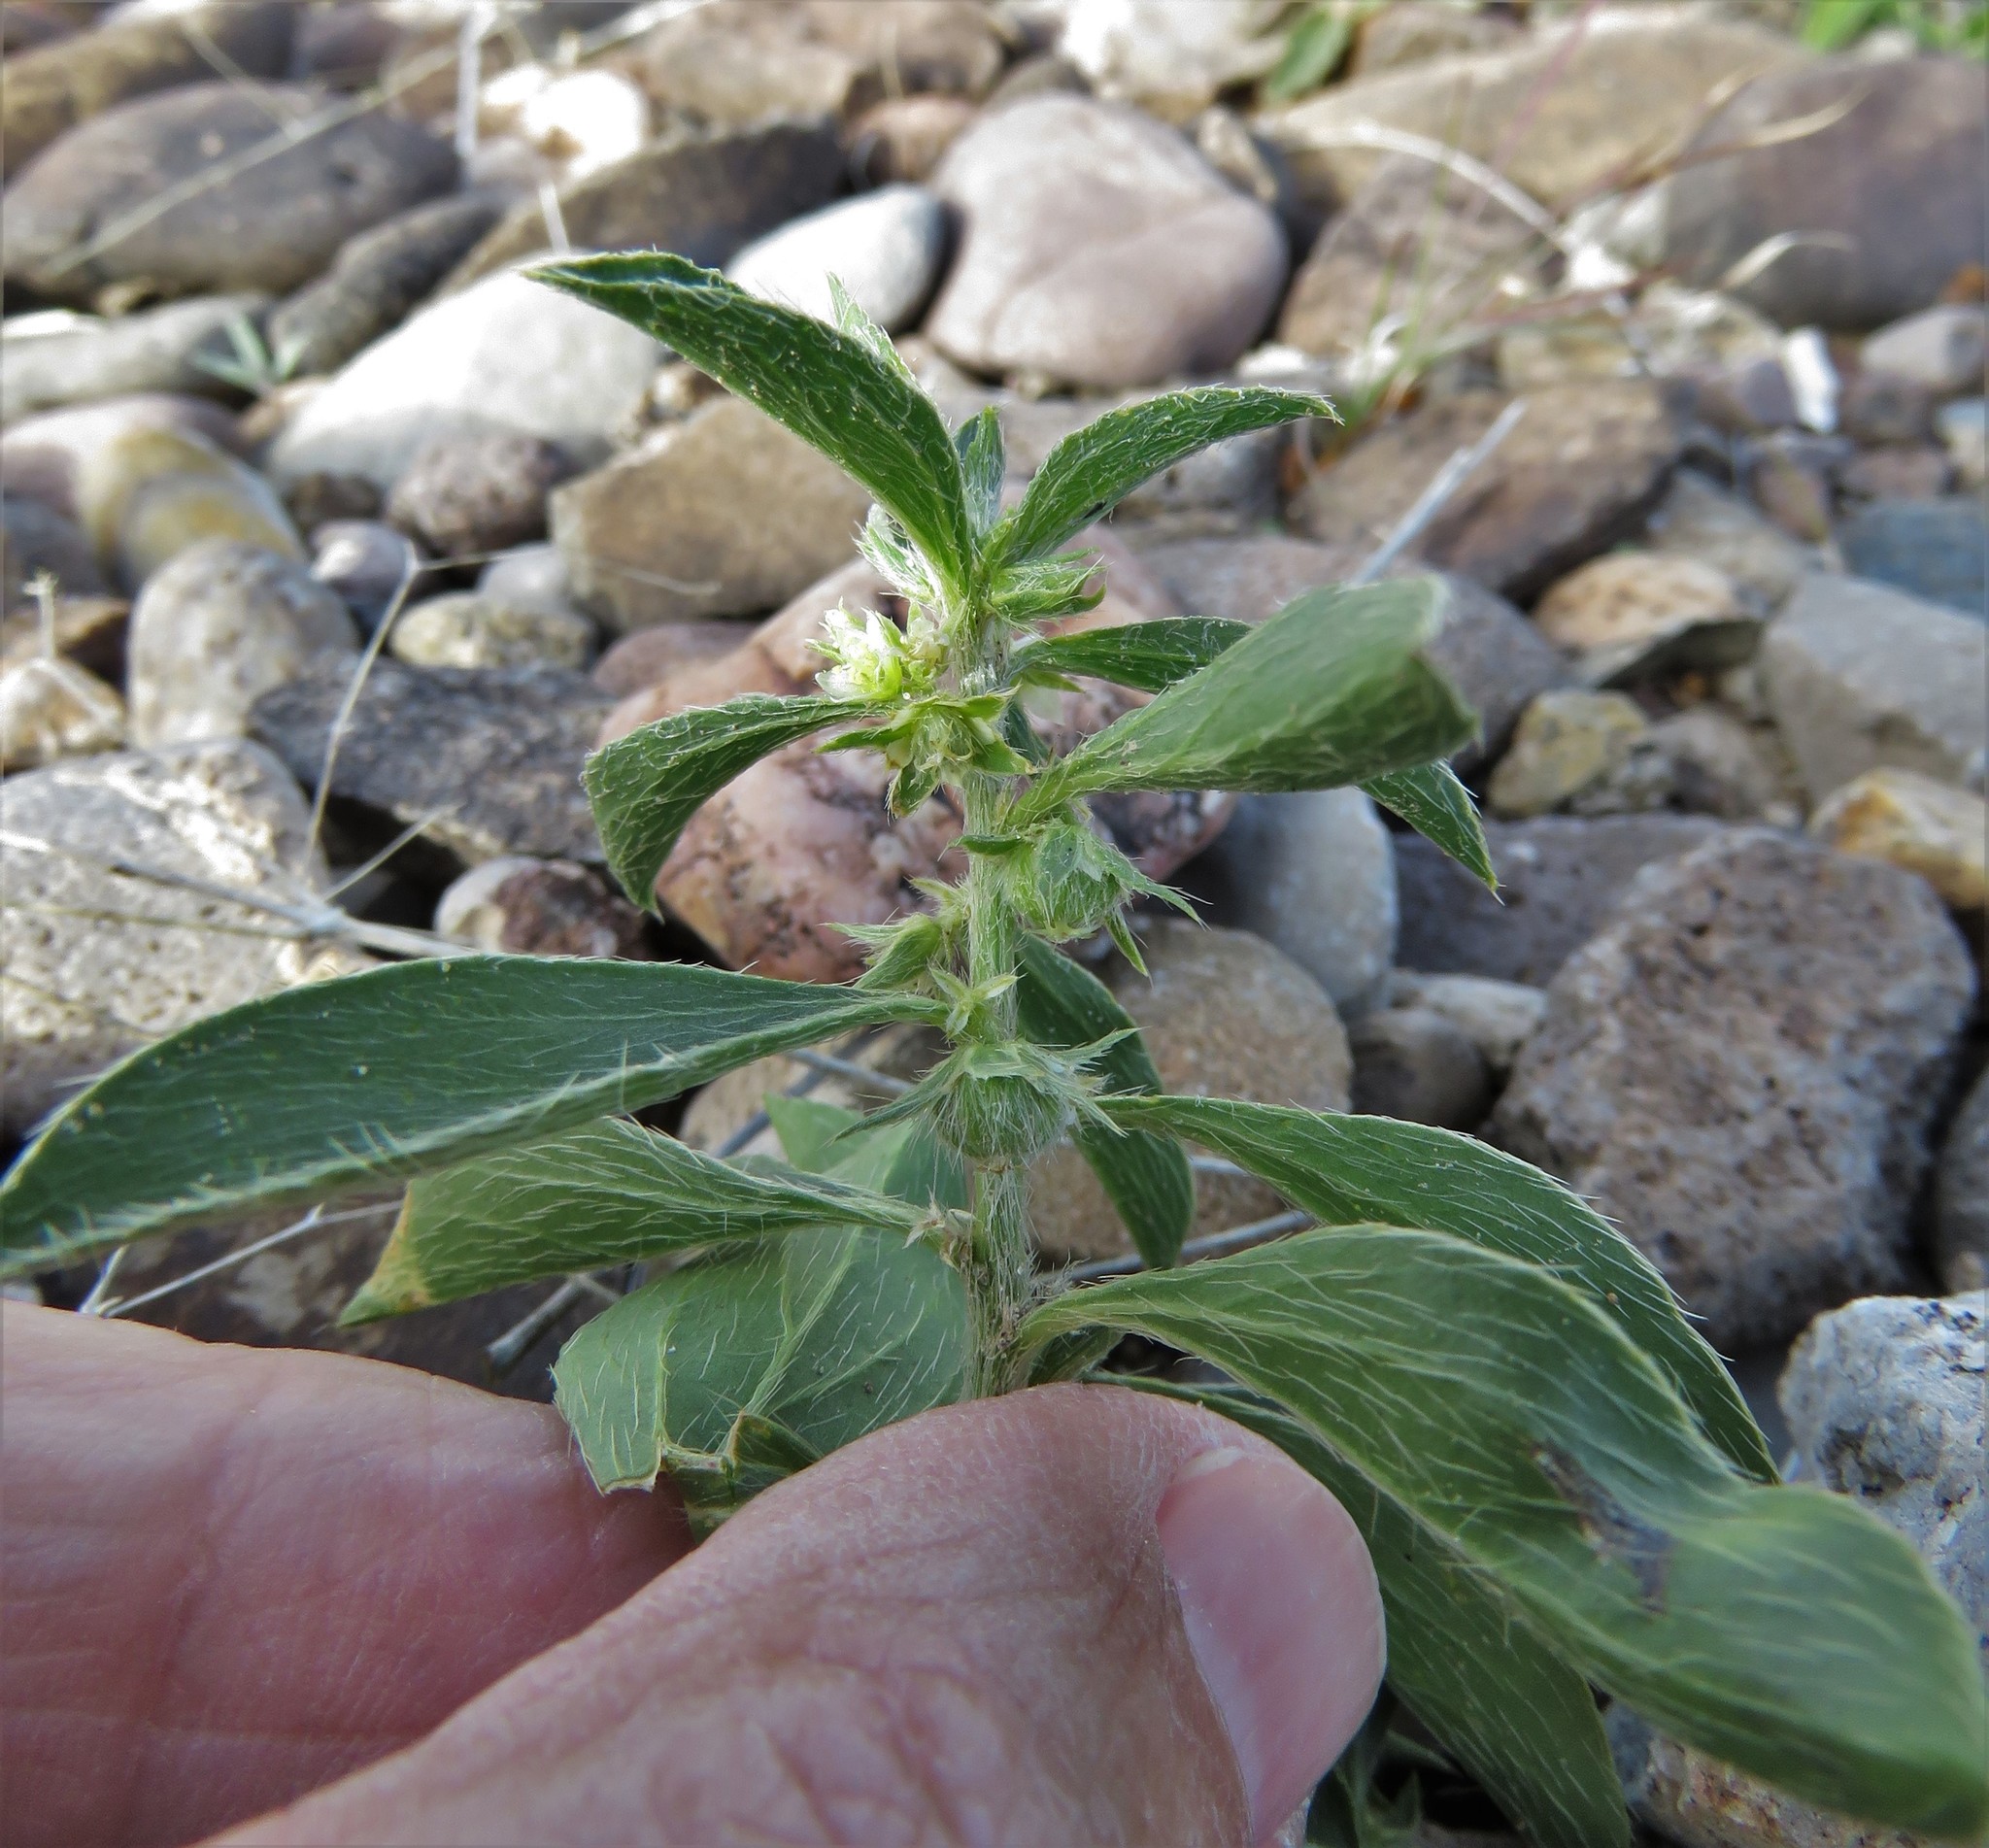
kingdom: Plantae
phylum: Tracheophyta
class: Magnoliopsida
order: Malpighiales
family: Euphorbiaceae
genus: Ditaxis
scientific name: Ditaxis serrata
